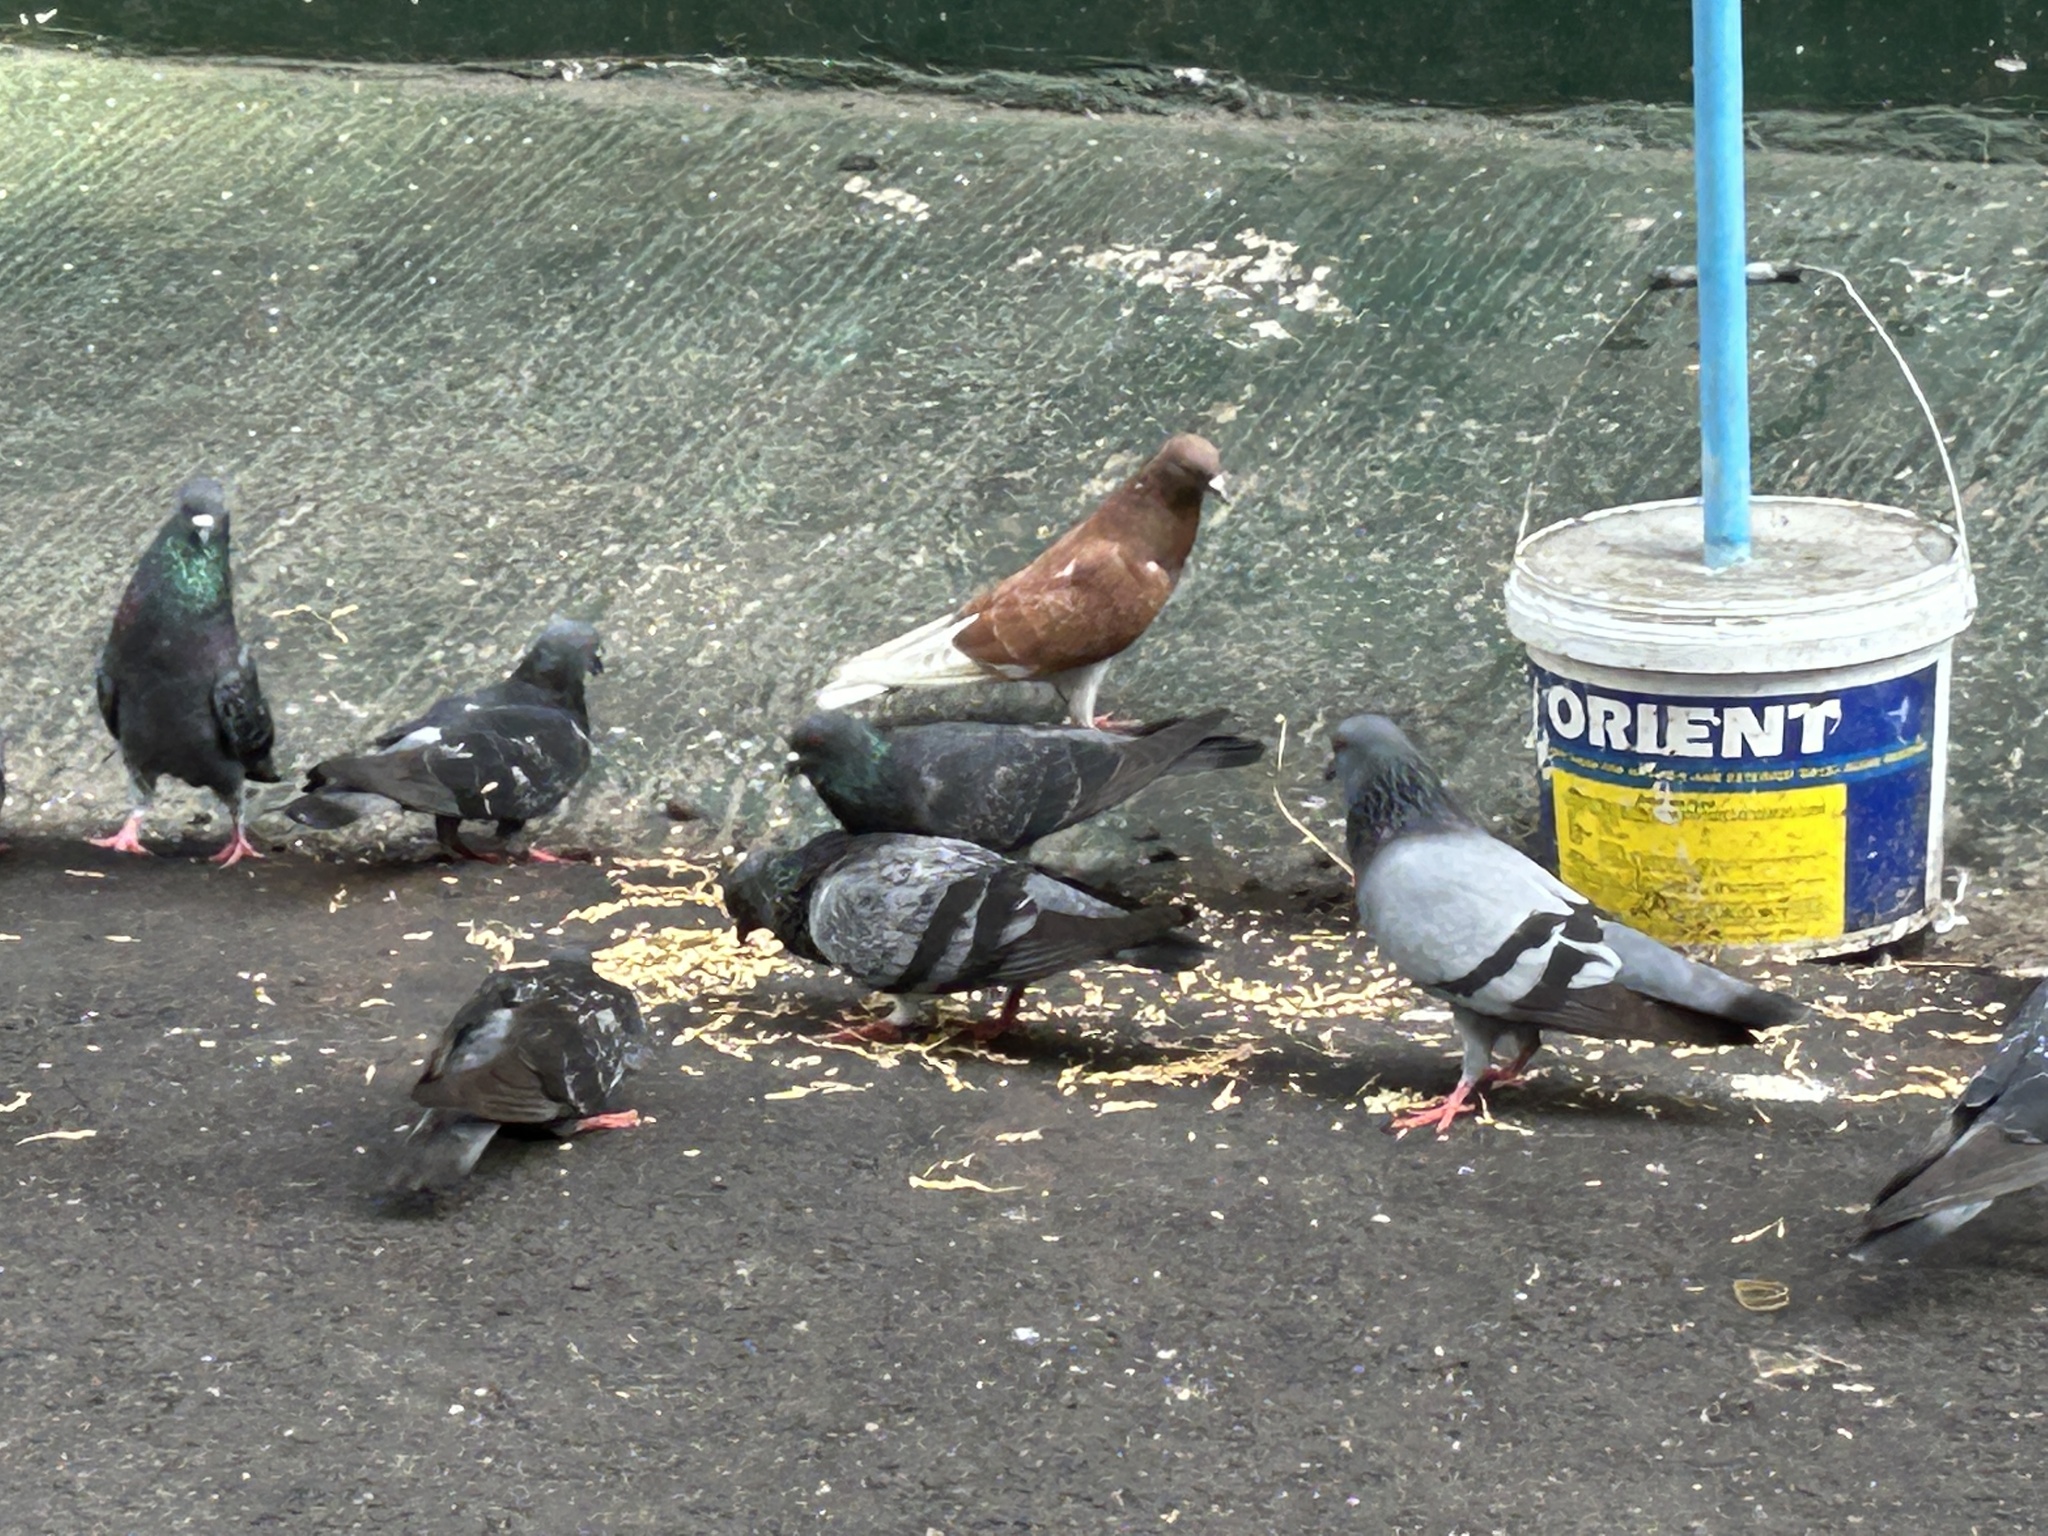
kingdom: Animalia
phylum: Chordata
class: Aves
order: Columbiformes
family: Columbidae
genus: Columba
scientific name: Columba livia
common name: Rock pigeon
